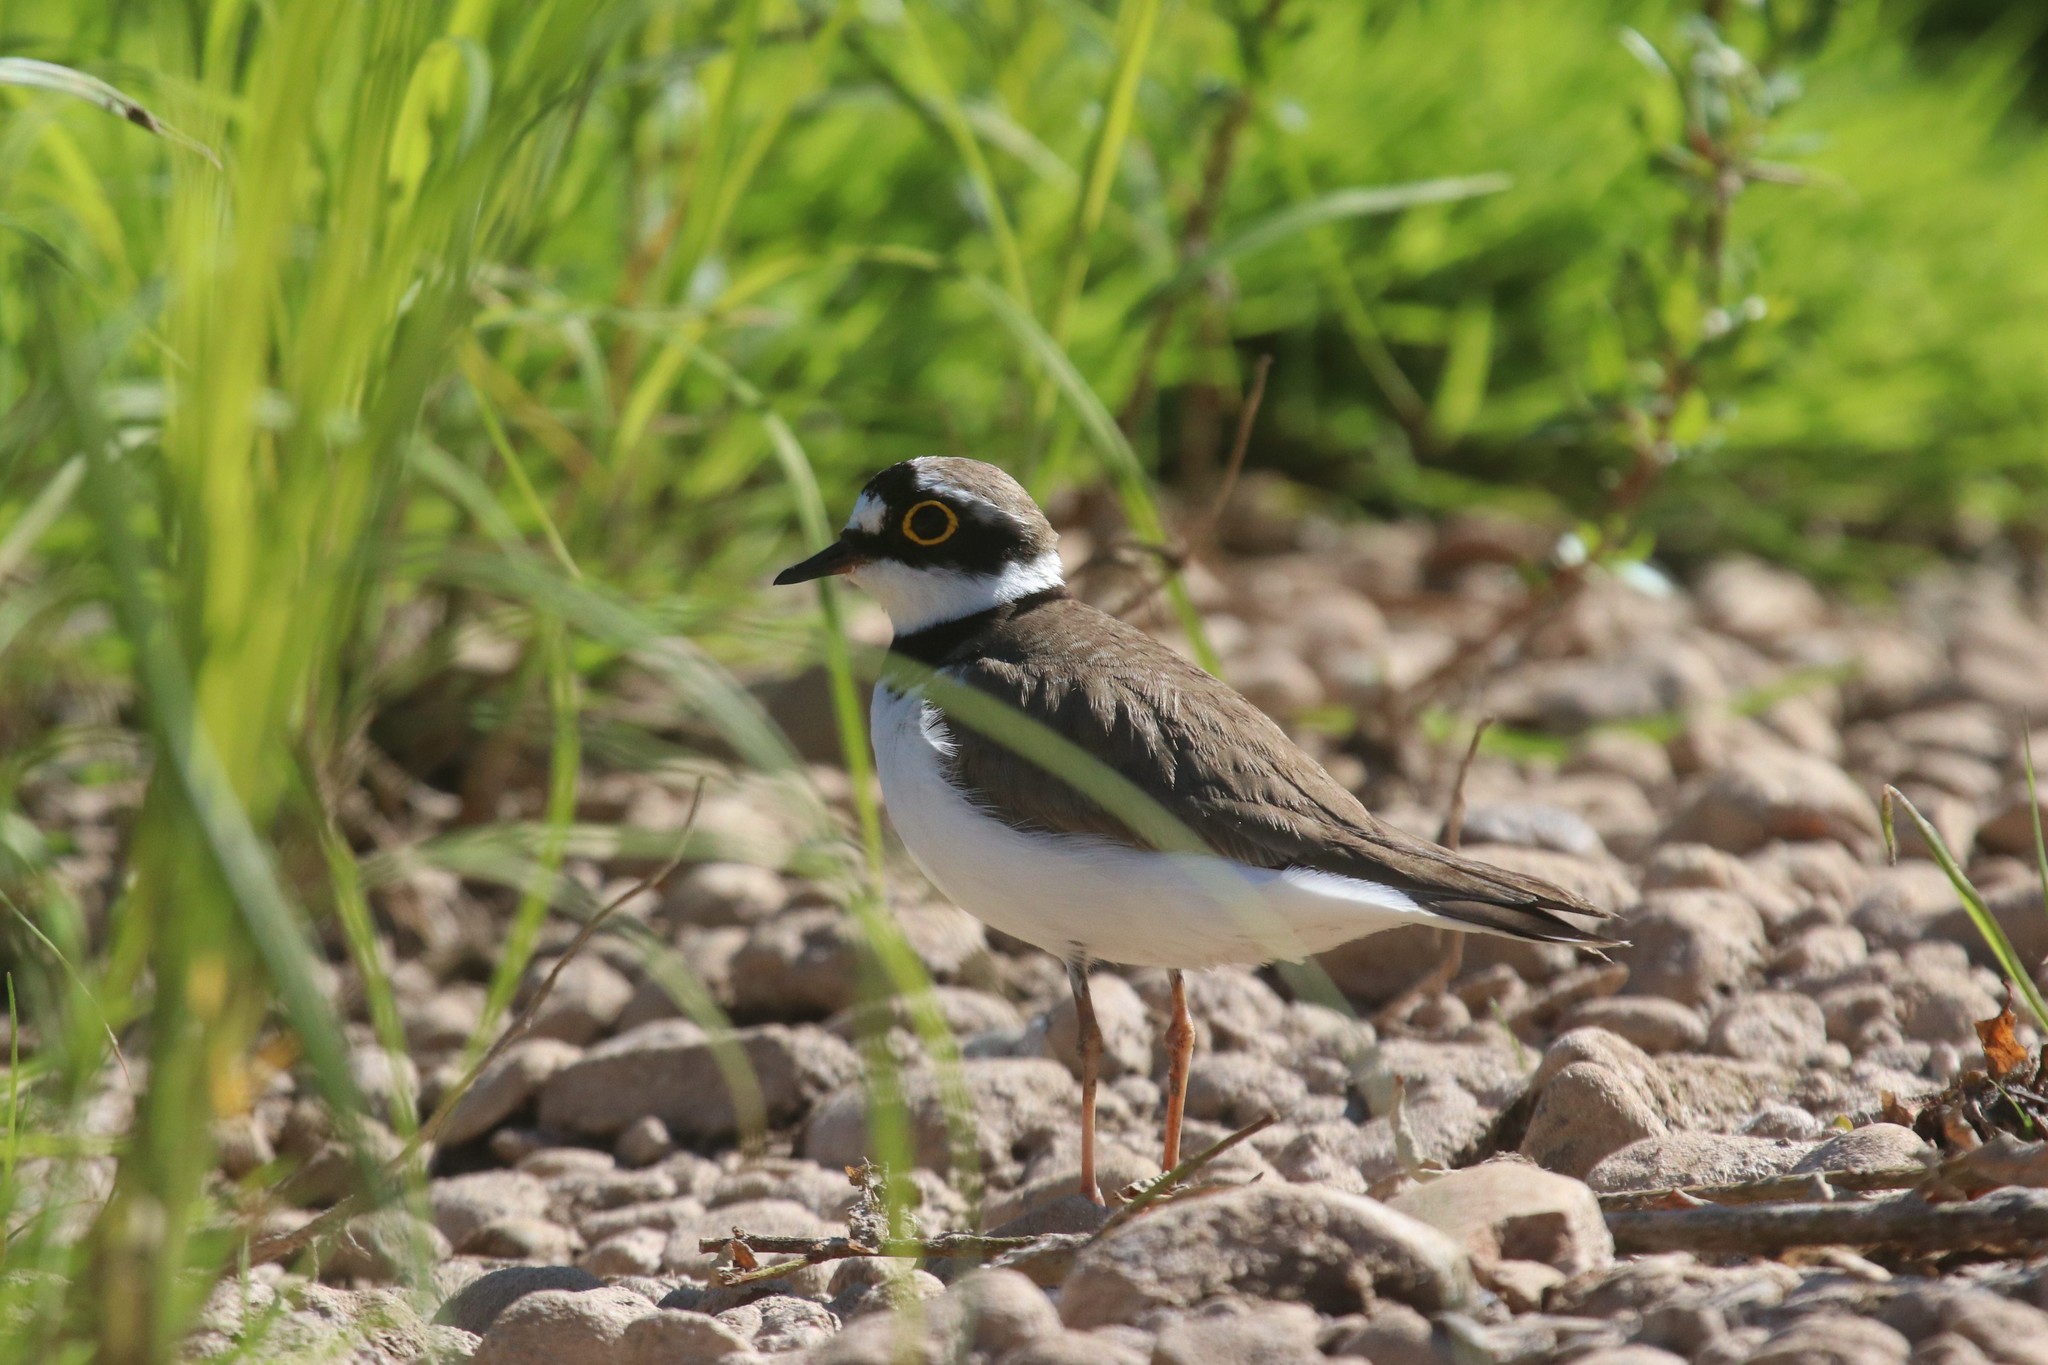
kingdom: Animalia
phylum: Chordata
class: Aves
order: Charadriiformes
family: Charadriidae
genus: Charadrius
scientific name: Charadrius dubius
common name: Little ringed plover
